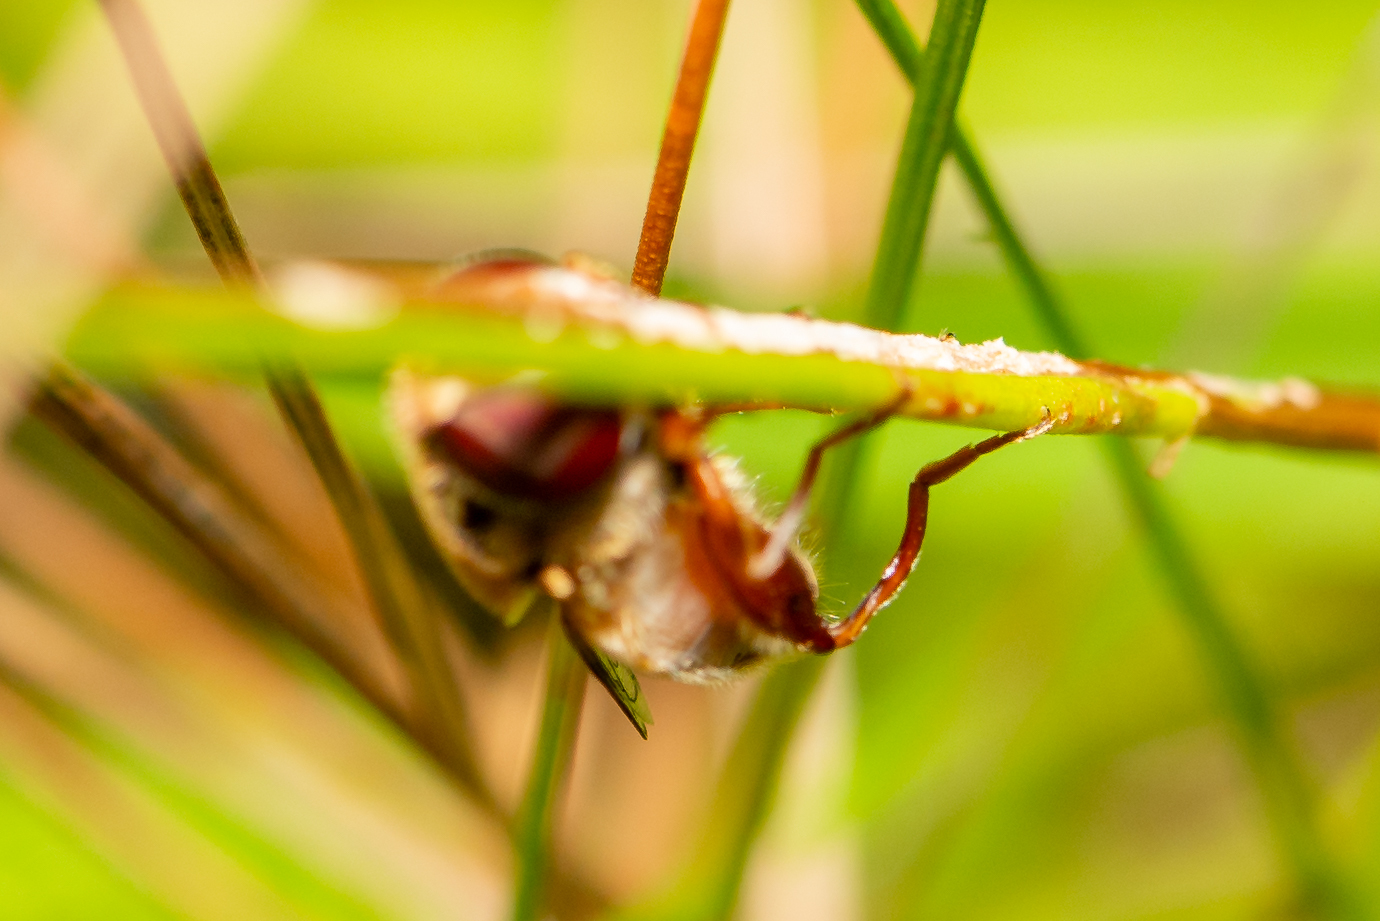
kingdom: Animalia
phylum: Arthropoda
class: Insecta
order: Diptera
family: Syrphidae
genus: Palpada
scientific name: Palpada rufipedes
